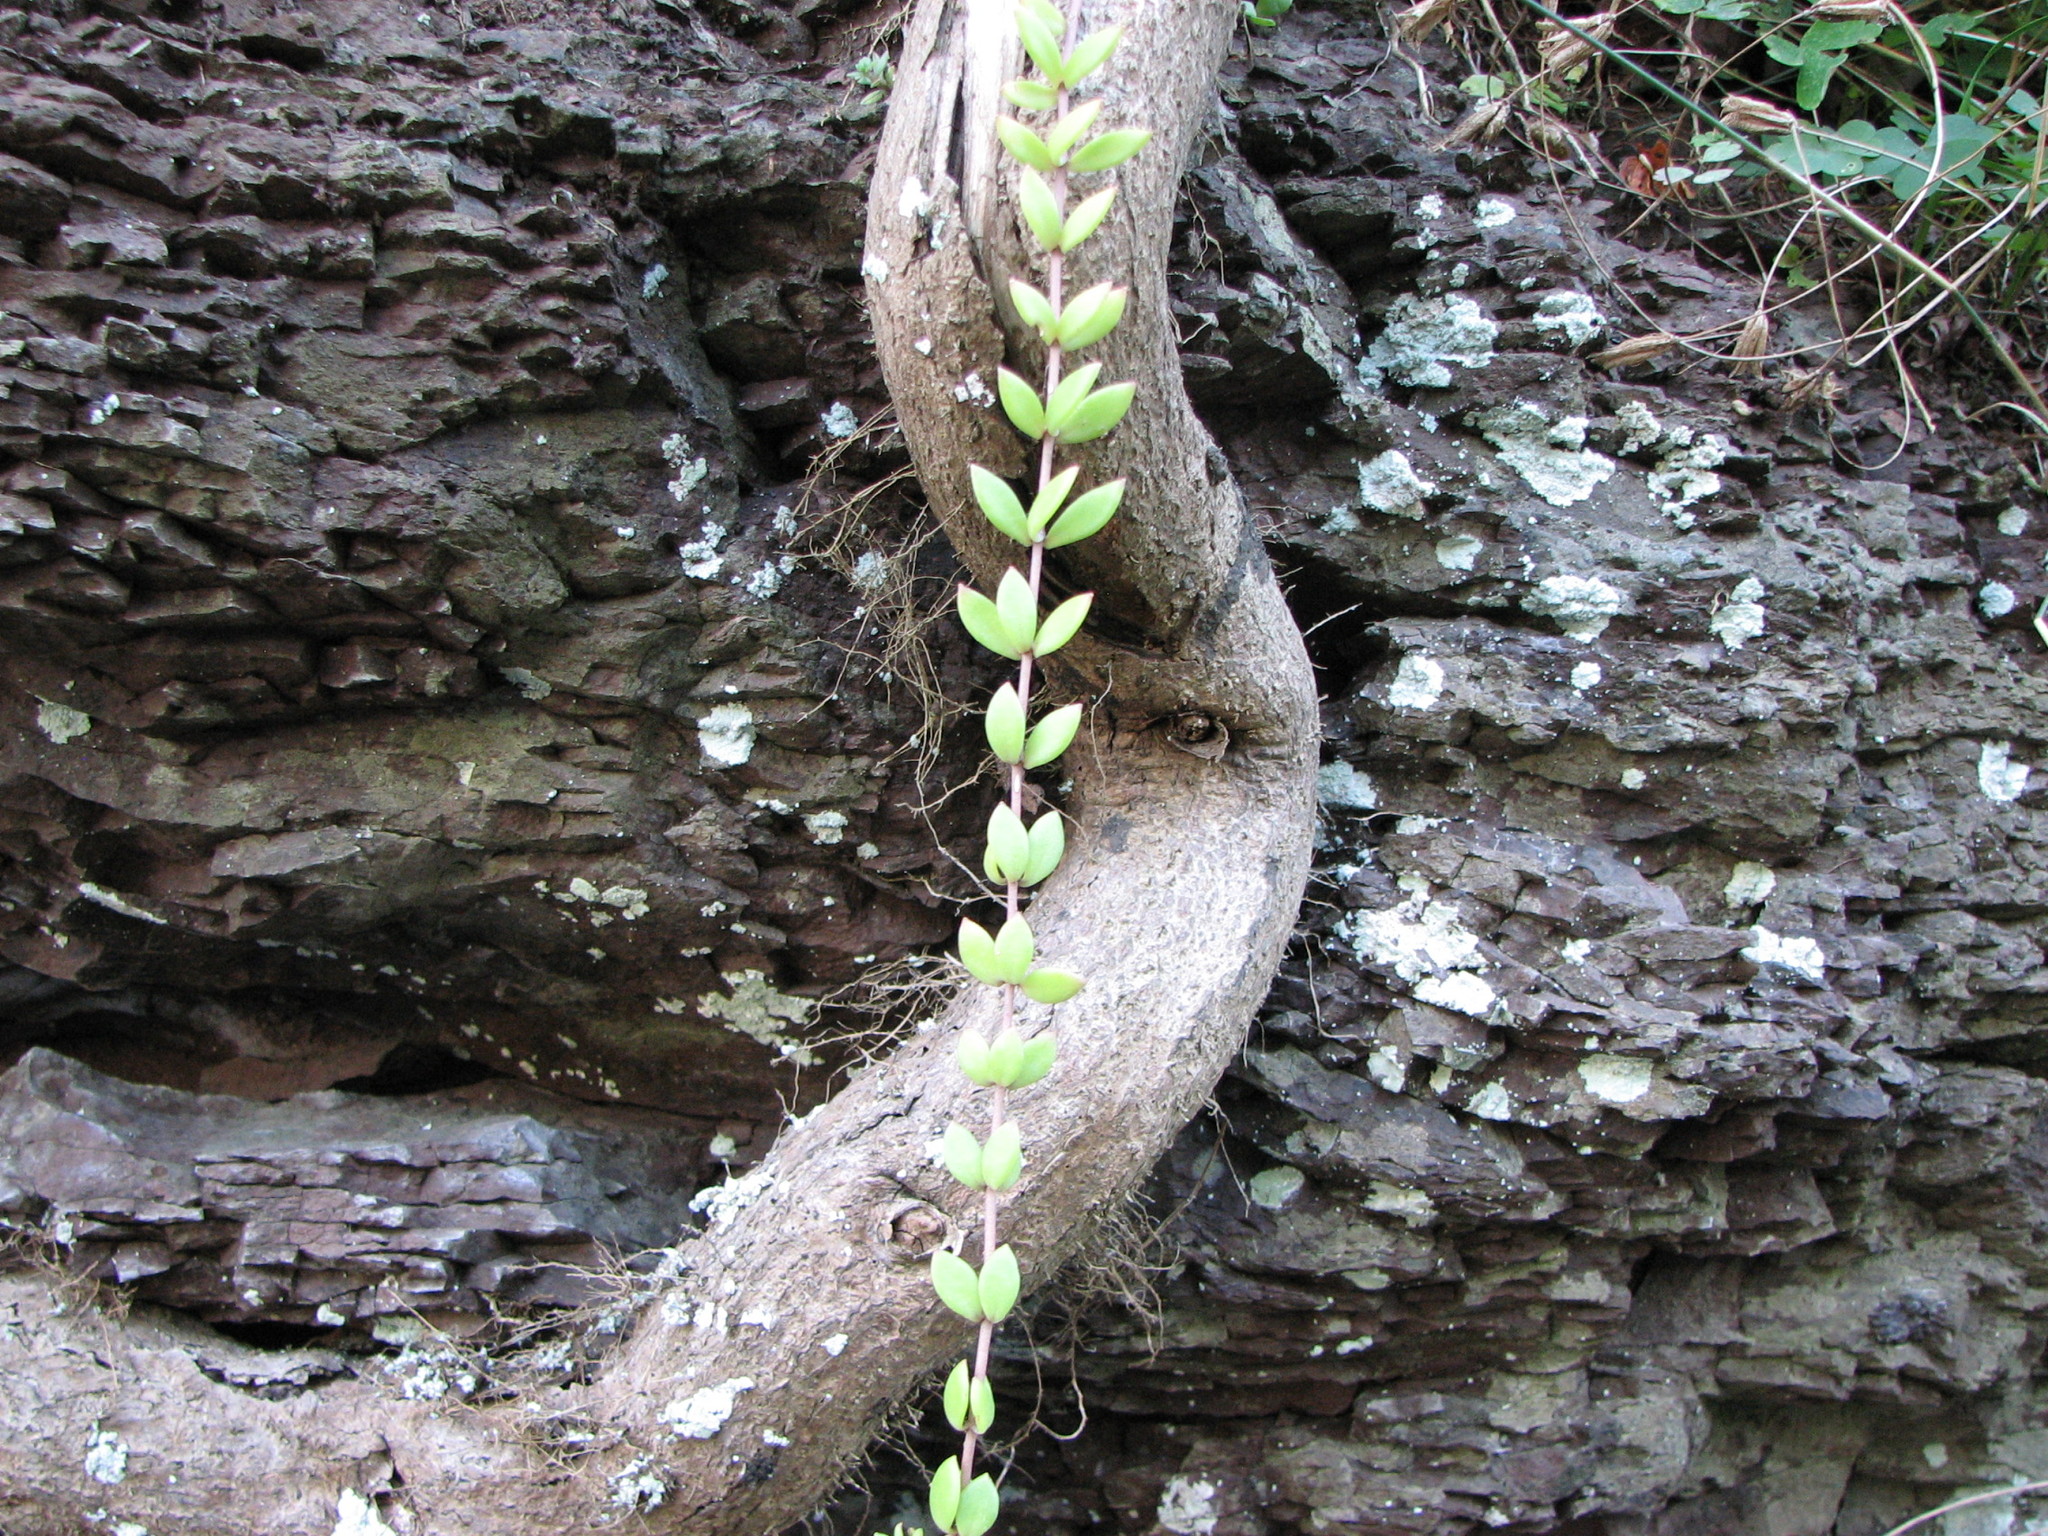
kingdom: Plantae
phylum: Tracheophyta
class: Magnoliopsida
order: Saxifragales
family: Crassulaceae
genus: Sedum
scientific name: Sedum sarmentosum
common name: Stringy stonecrop
